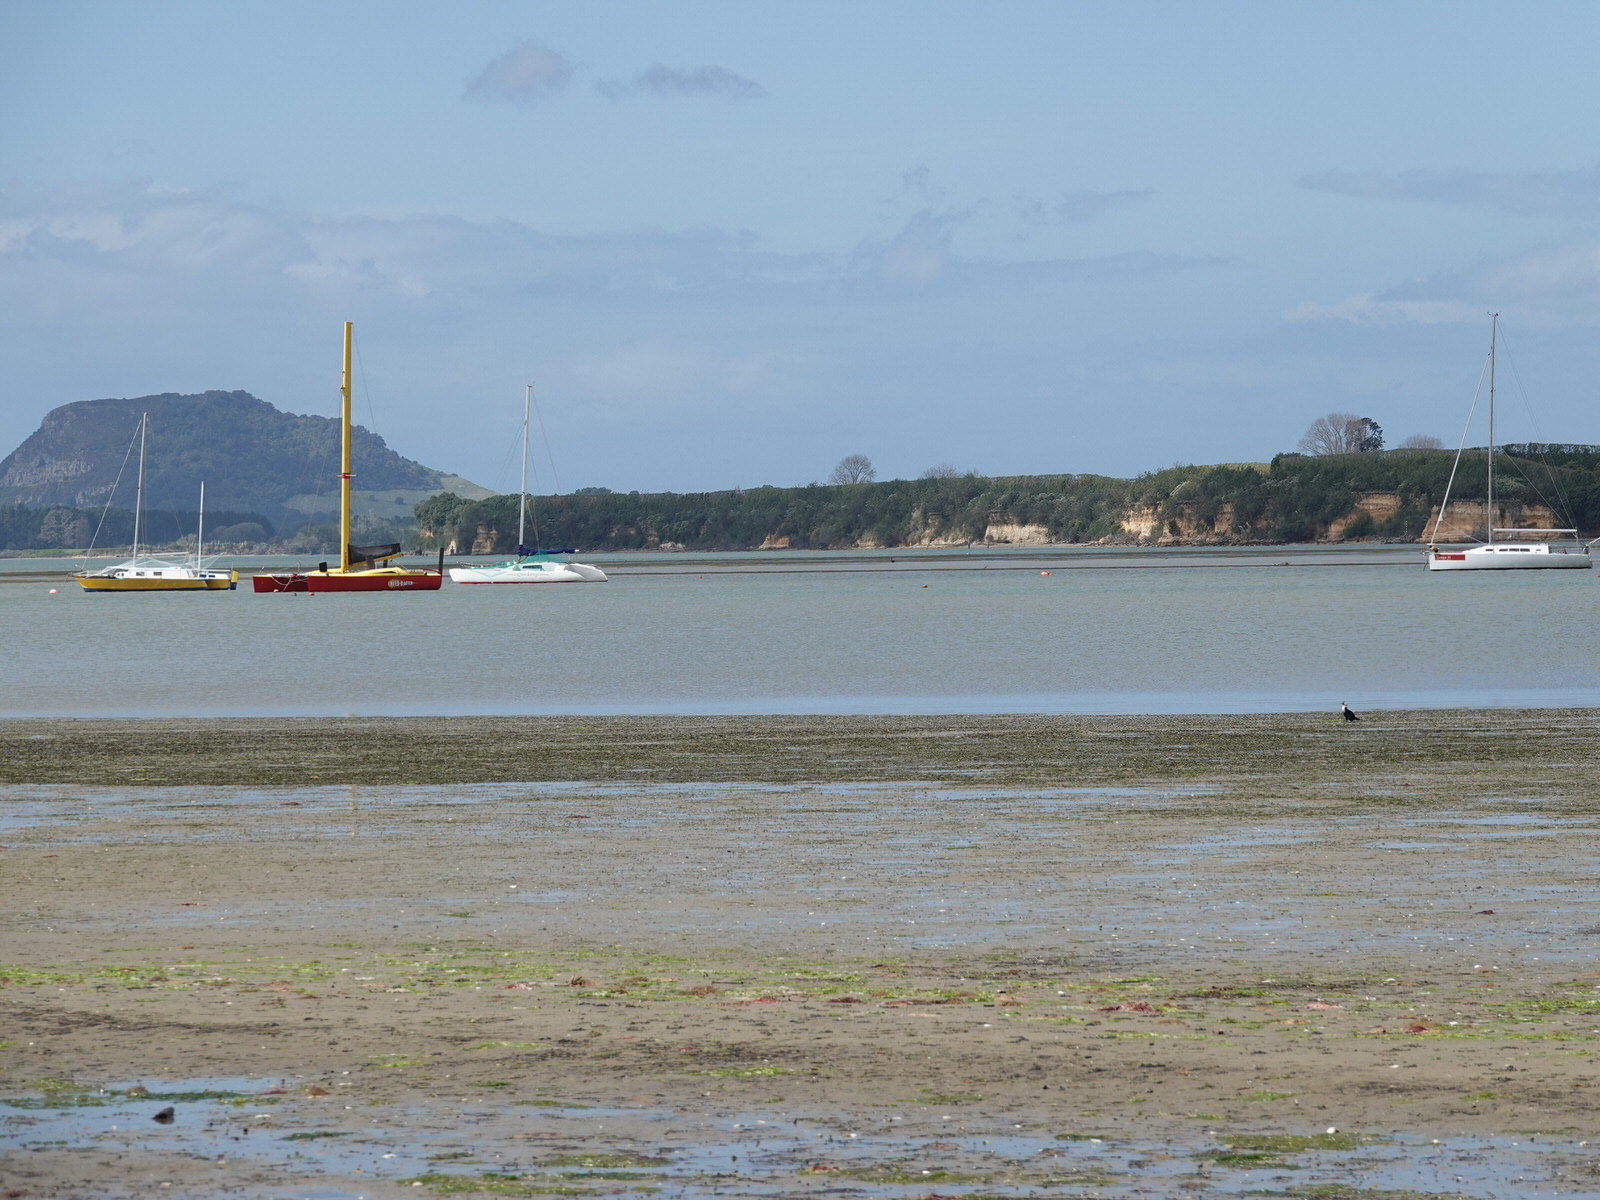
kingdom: Animalia
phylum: Chordata
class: Aves
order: Suliformes
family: Phalacrocoracidae
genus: Microcarbo
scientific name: Microcarbo melanoleucos
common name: Little pied cormorant
